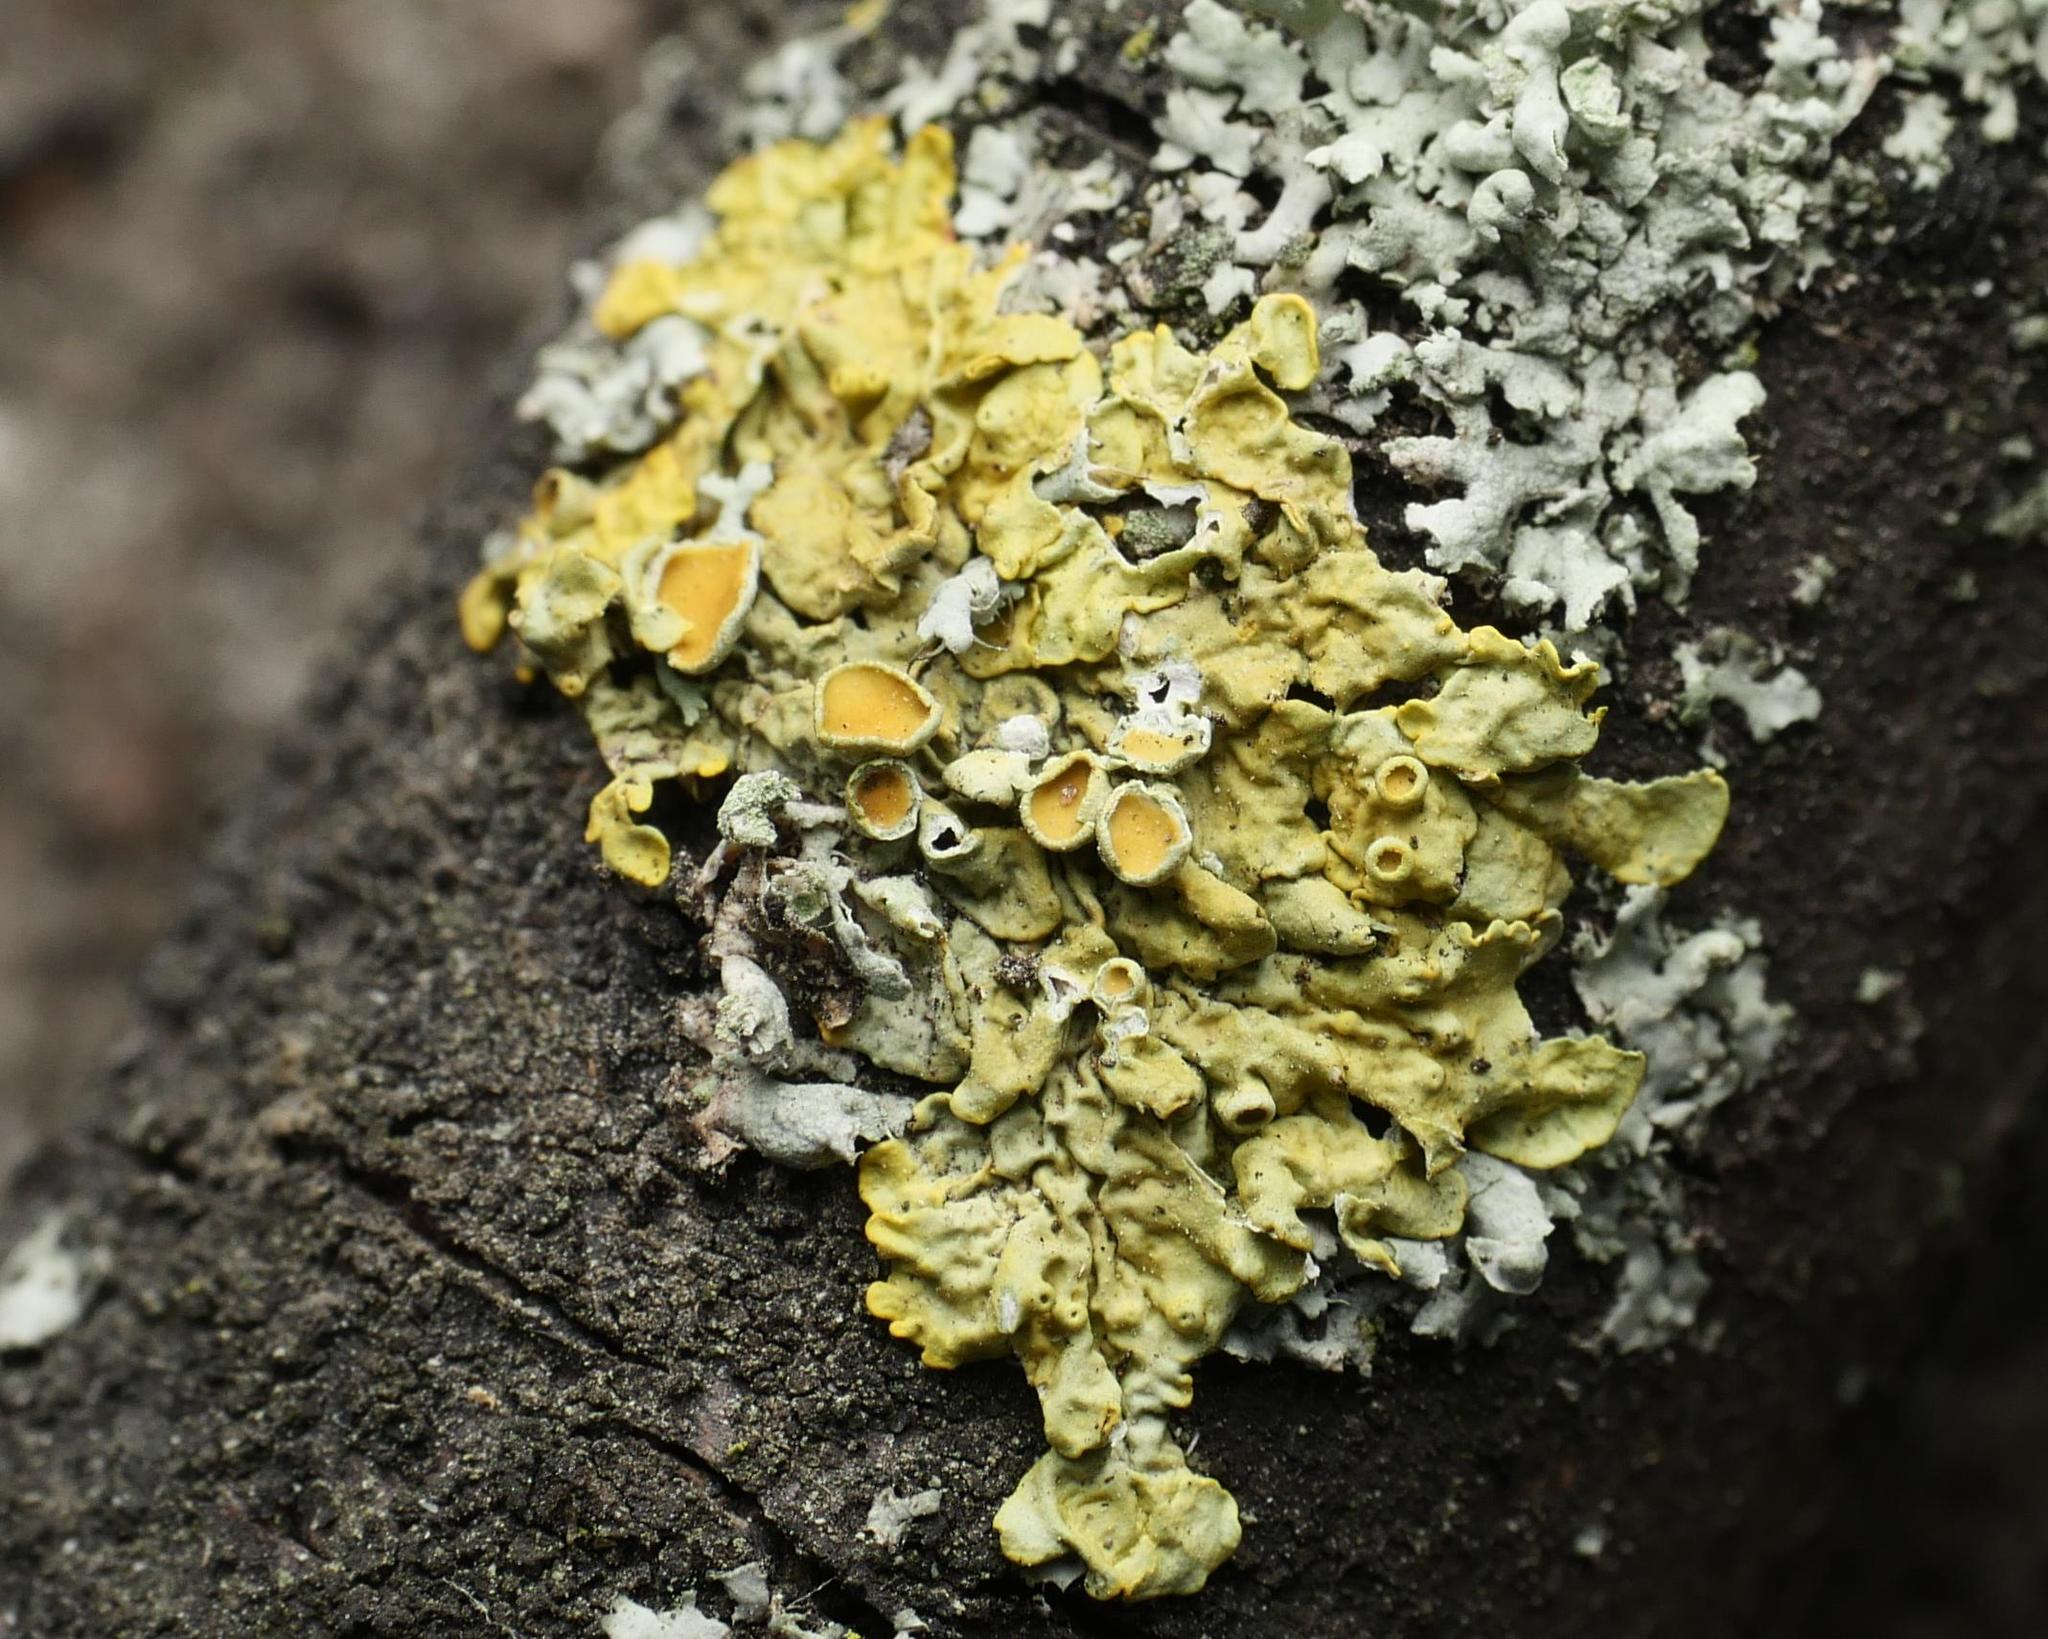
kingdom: Fungi
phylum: Ascomycota
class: Lecanoromycetes
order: Teloschistales
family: Teloschistaceae
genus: Xanthoria
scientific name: Xanthoria parietina
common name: Common orange lichen
